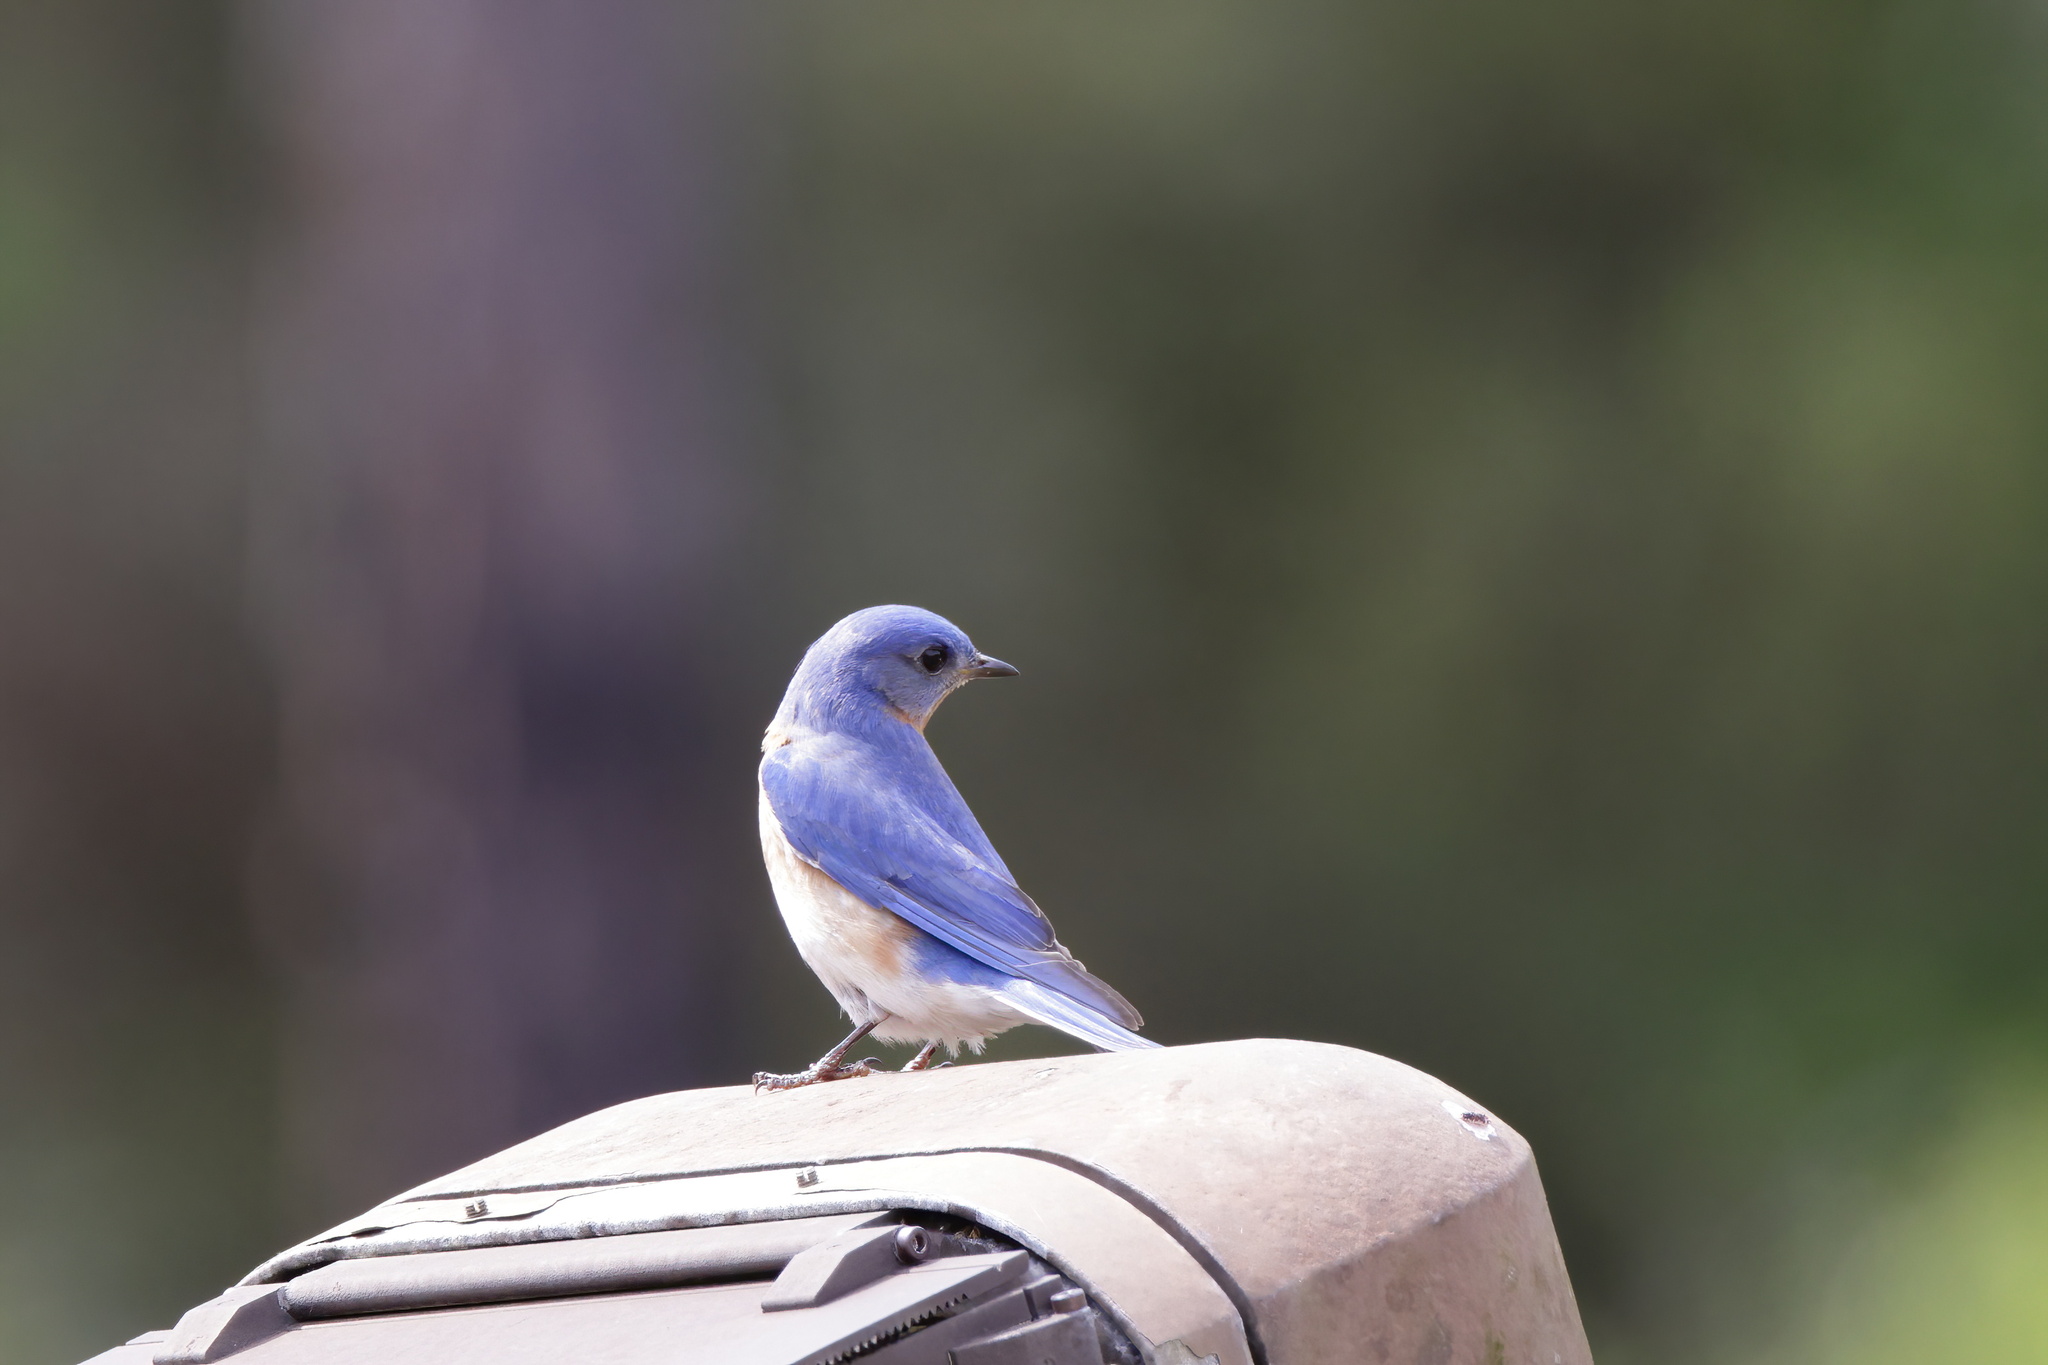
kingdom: Animalia
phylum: Chordata
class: Aves
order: Passeriformes
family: Turdidae
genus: Sialia
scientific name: Sialia sialis
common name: Eastern bluebird
